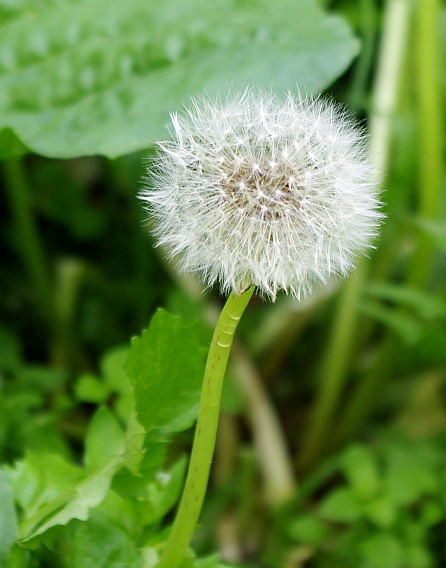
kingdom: Plantae
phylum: Tracheophyta
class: Magnoliopsida
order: Asterales
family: Asteraceae
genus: Taraxacum
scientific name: Taraxacum officinale
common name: Common dandelion
